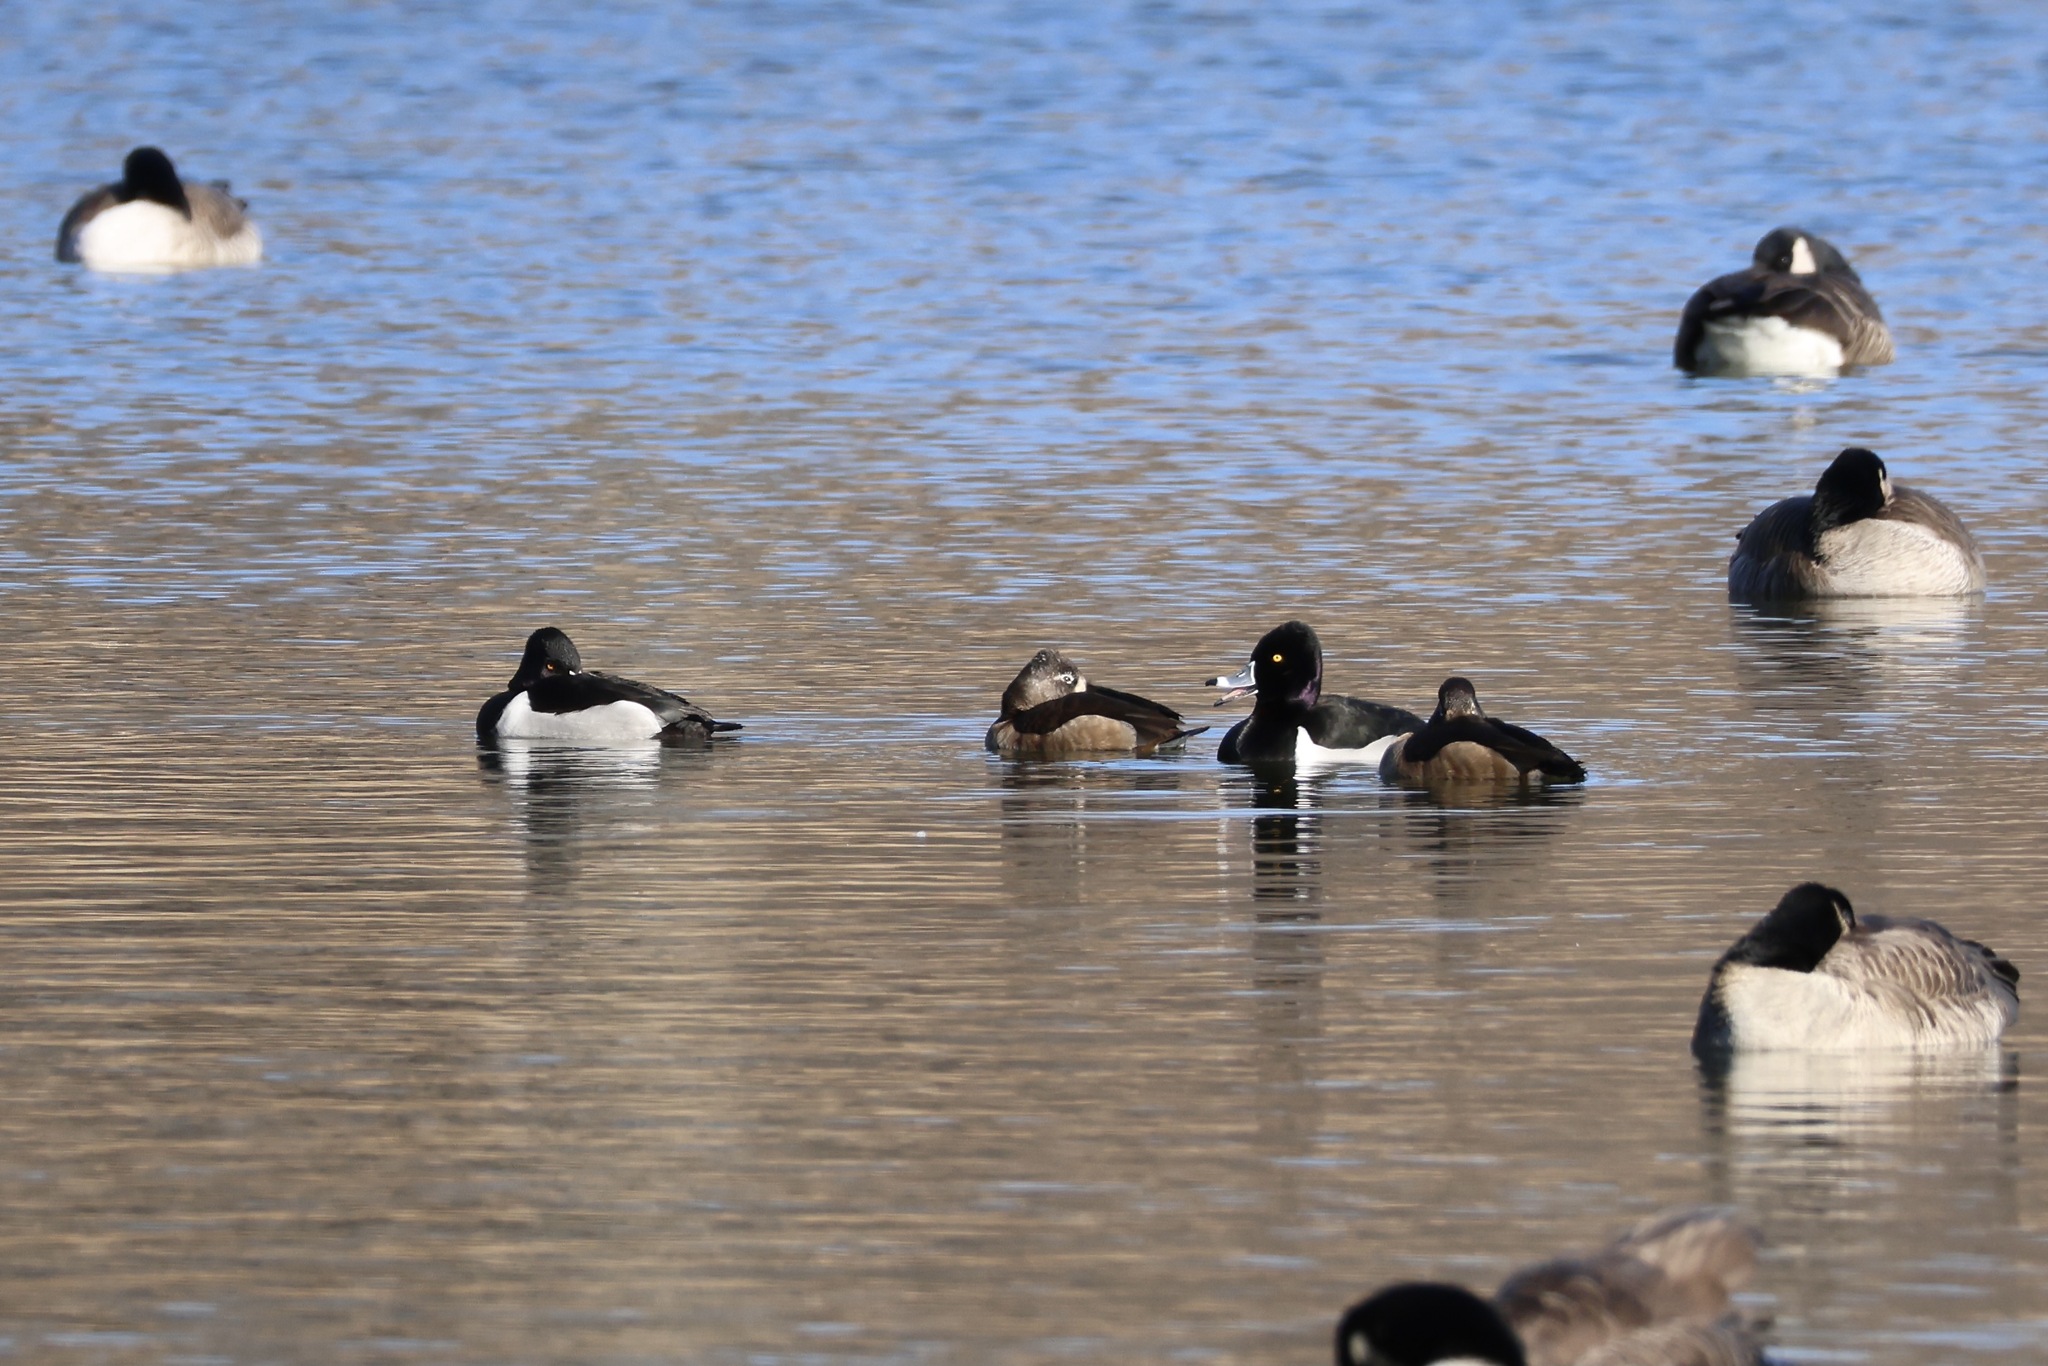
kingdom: Animalia
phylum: Chordata
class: Aves
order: Anseriformes
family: Anatidae
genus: Aythya
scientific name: Aythya collaris
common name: Ring-necked duck
